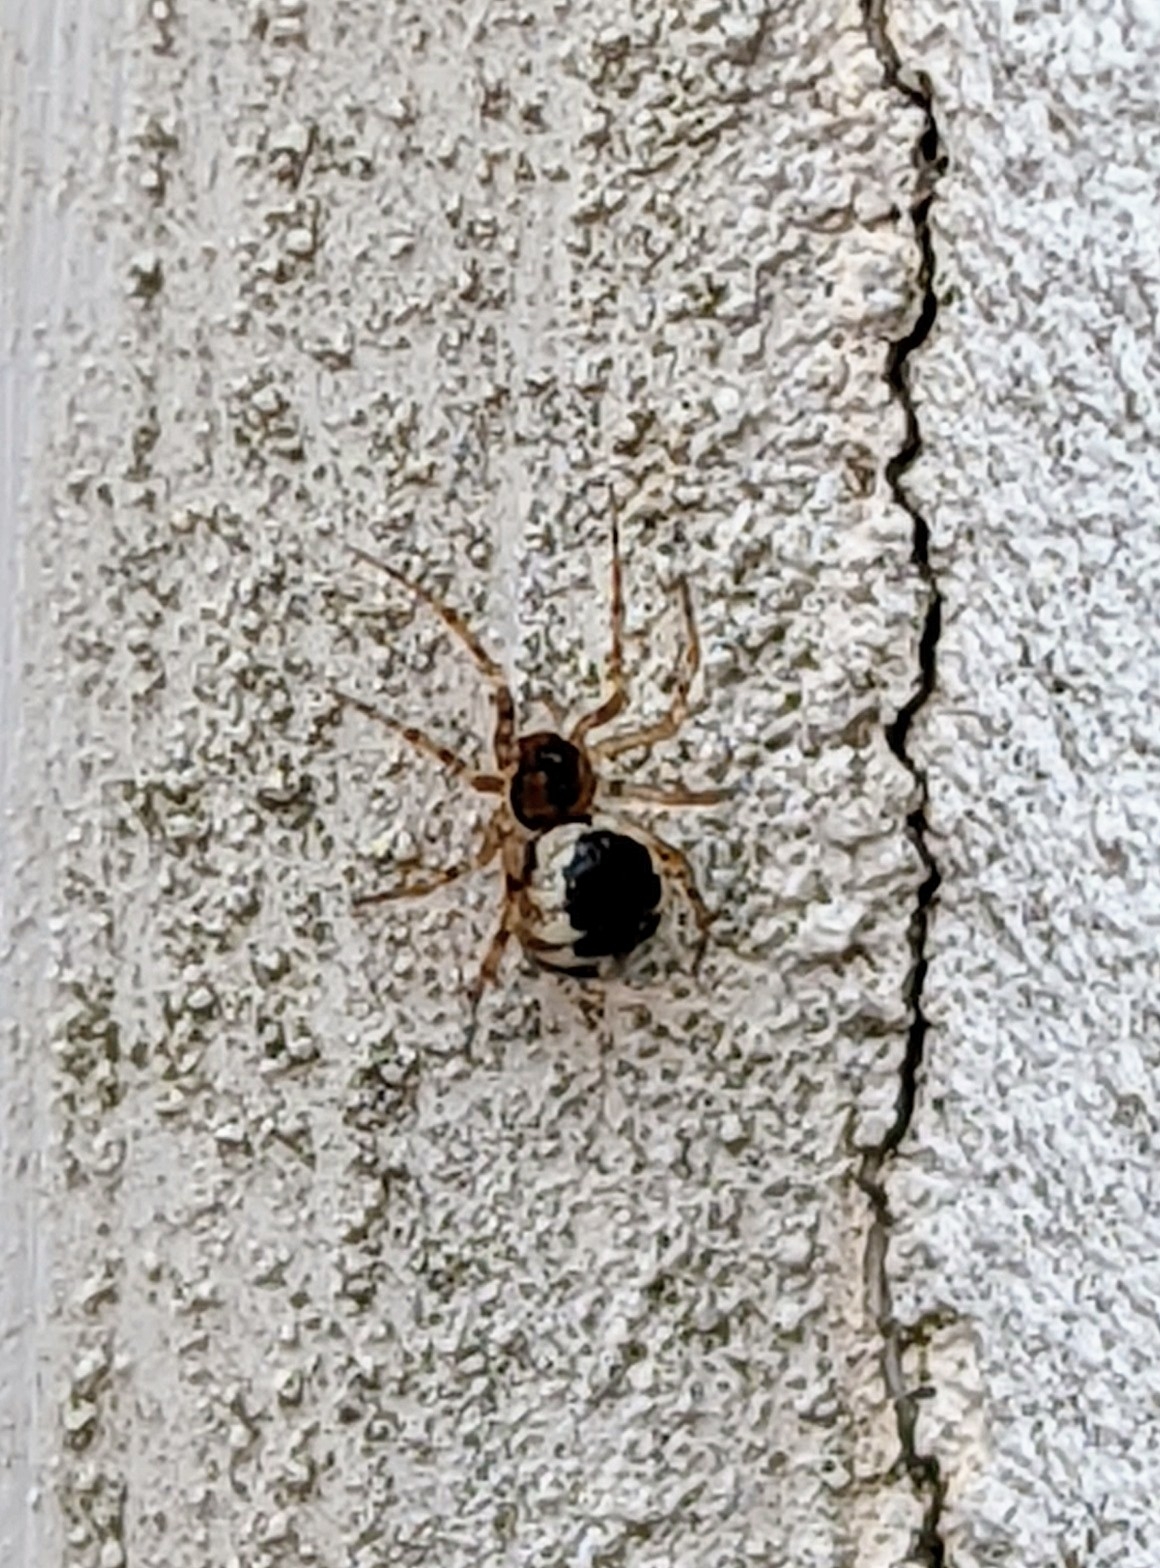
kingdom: Animalia
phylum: Arthropoda
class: Arachnida
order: Araneae
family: Theridiidae
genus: Sardinidion
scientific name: Sardinidion blackwalli
